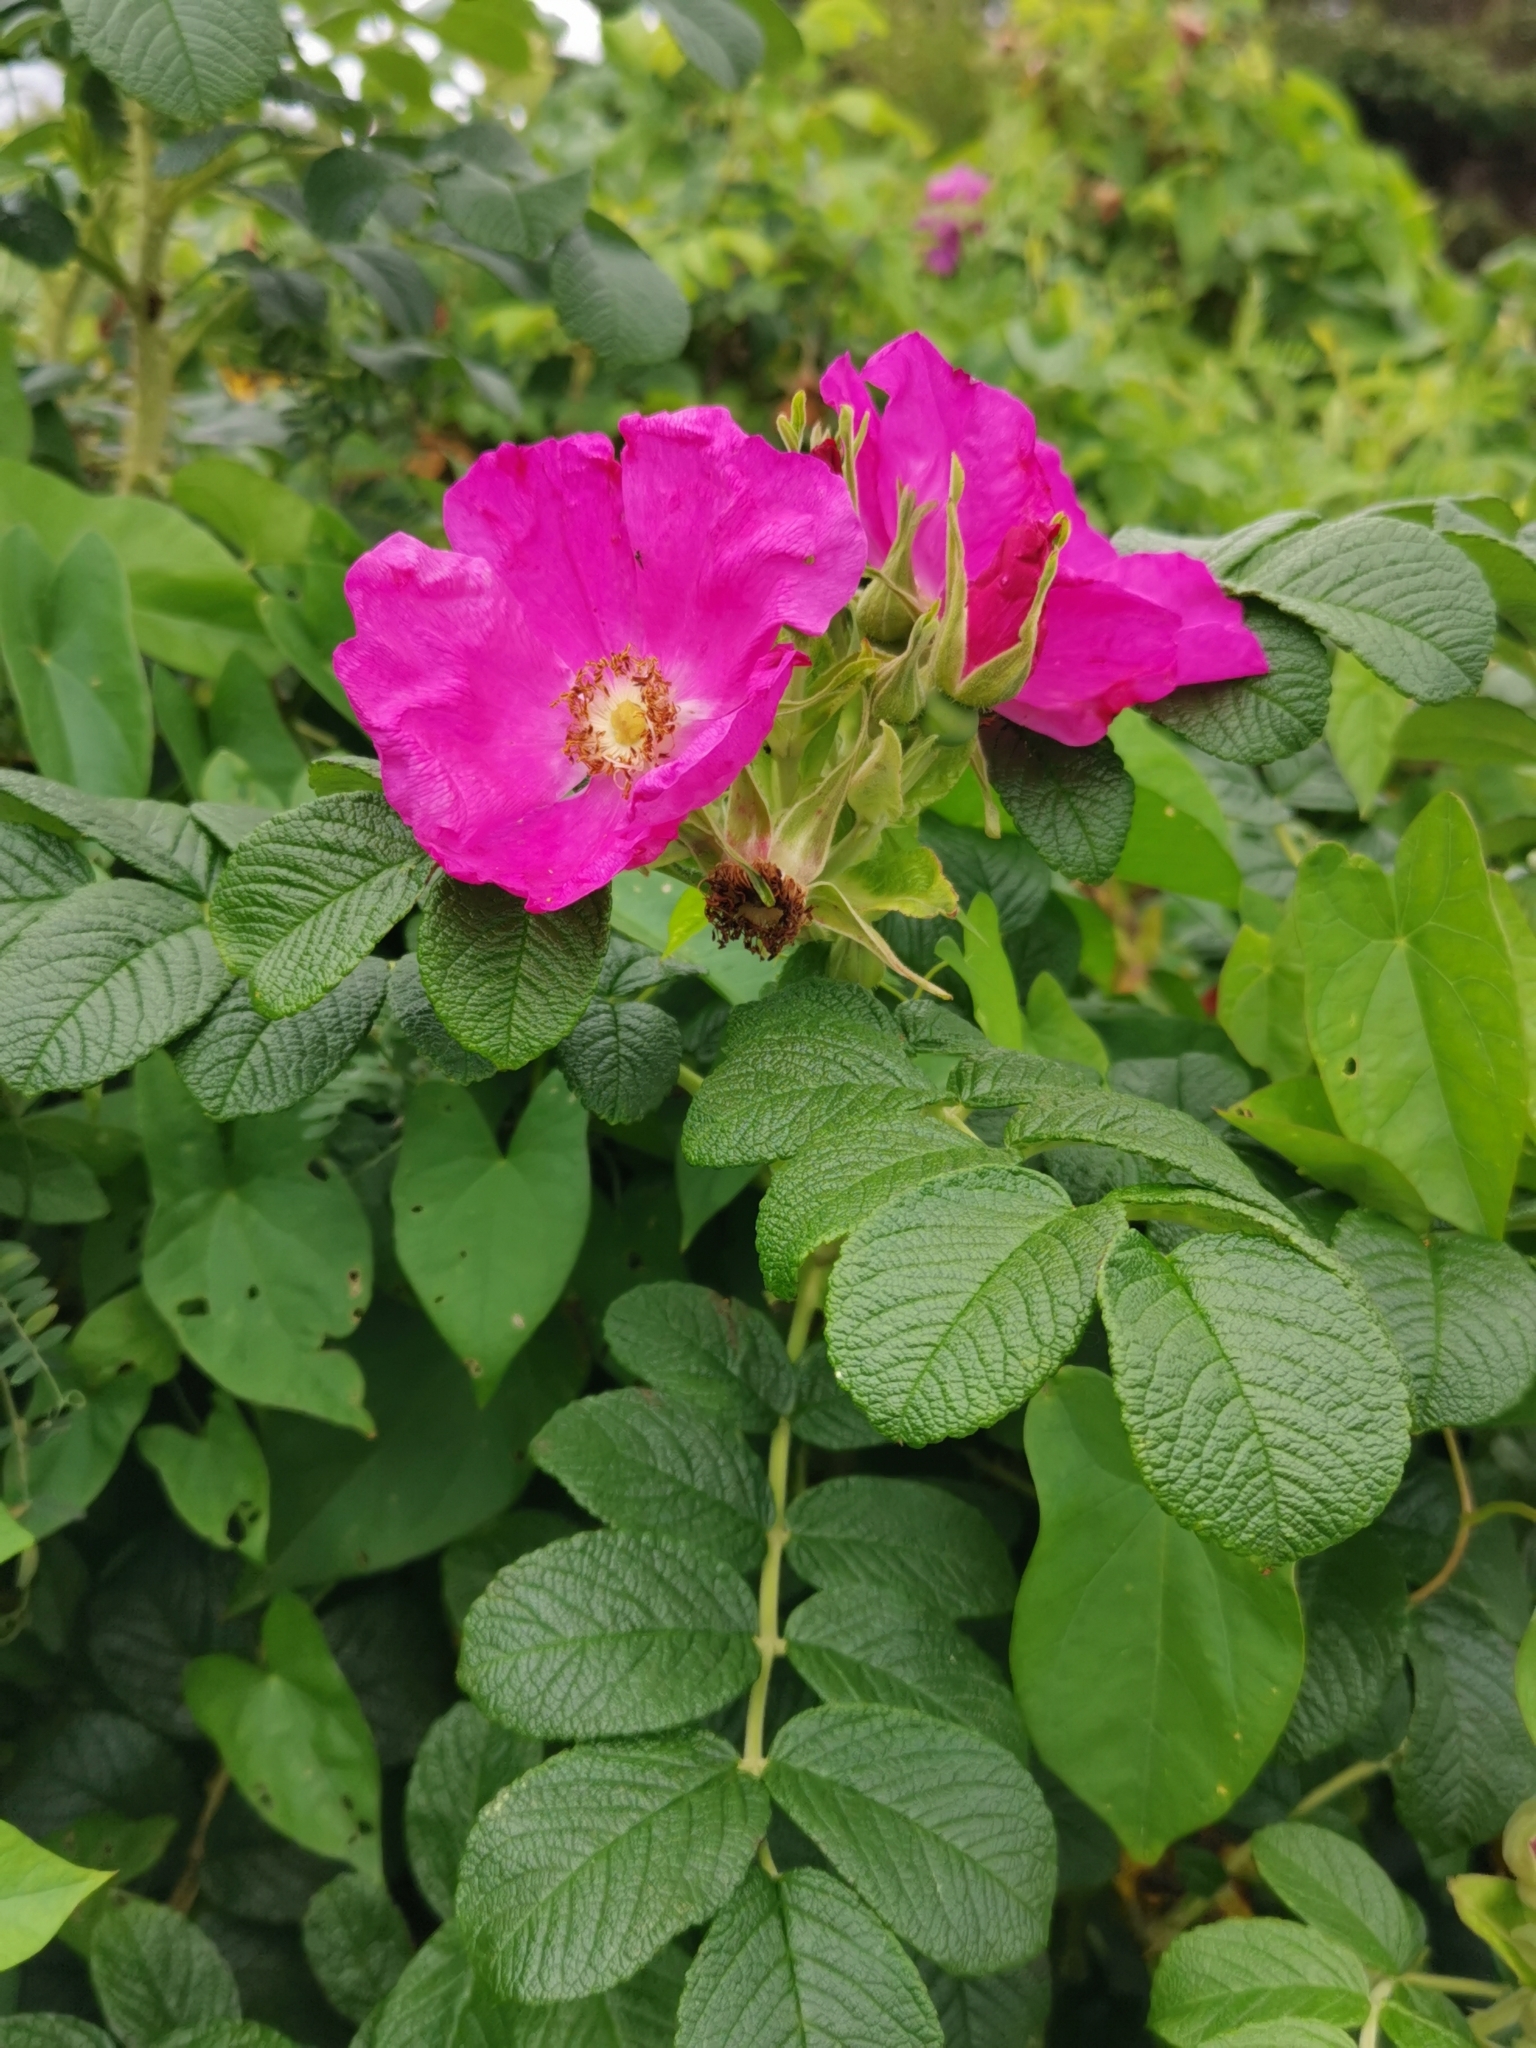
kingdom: Plantae
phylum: Tracheophyta
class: Magnoliopsida
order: Rosales
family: Rosaceae
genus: Rosa
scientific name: Rosa rugosa
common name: Japanese rose
